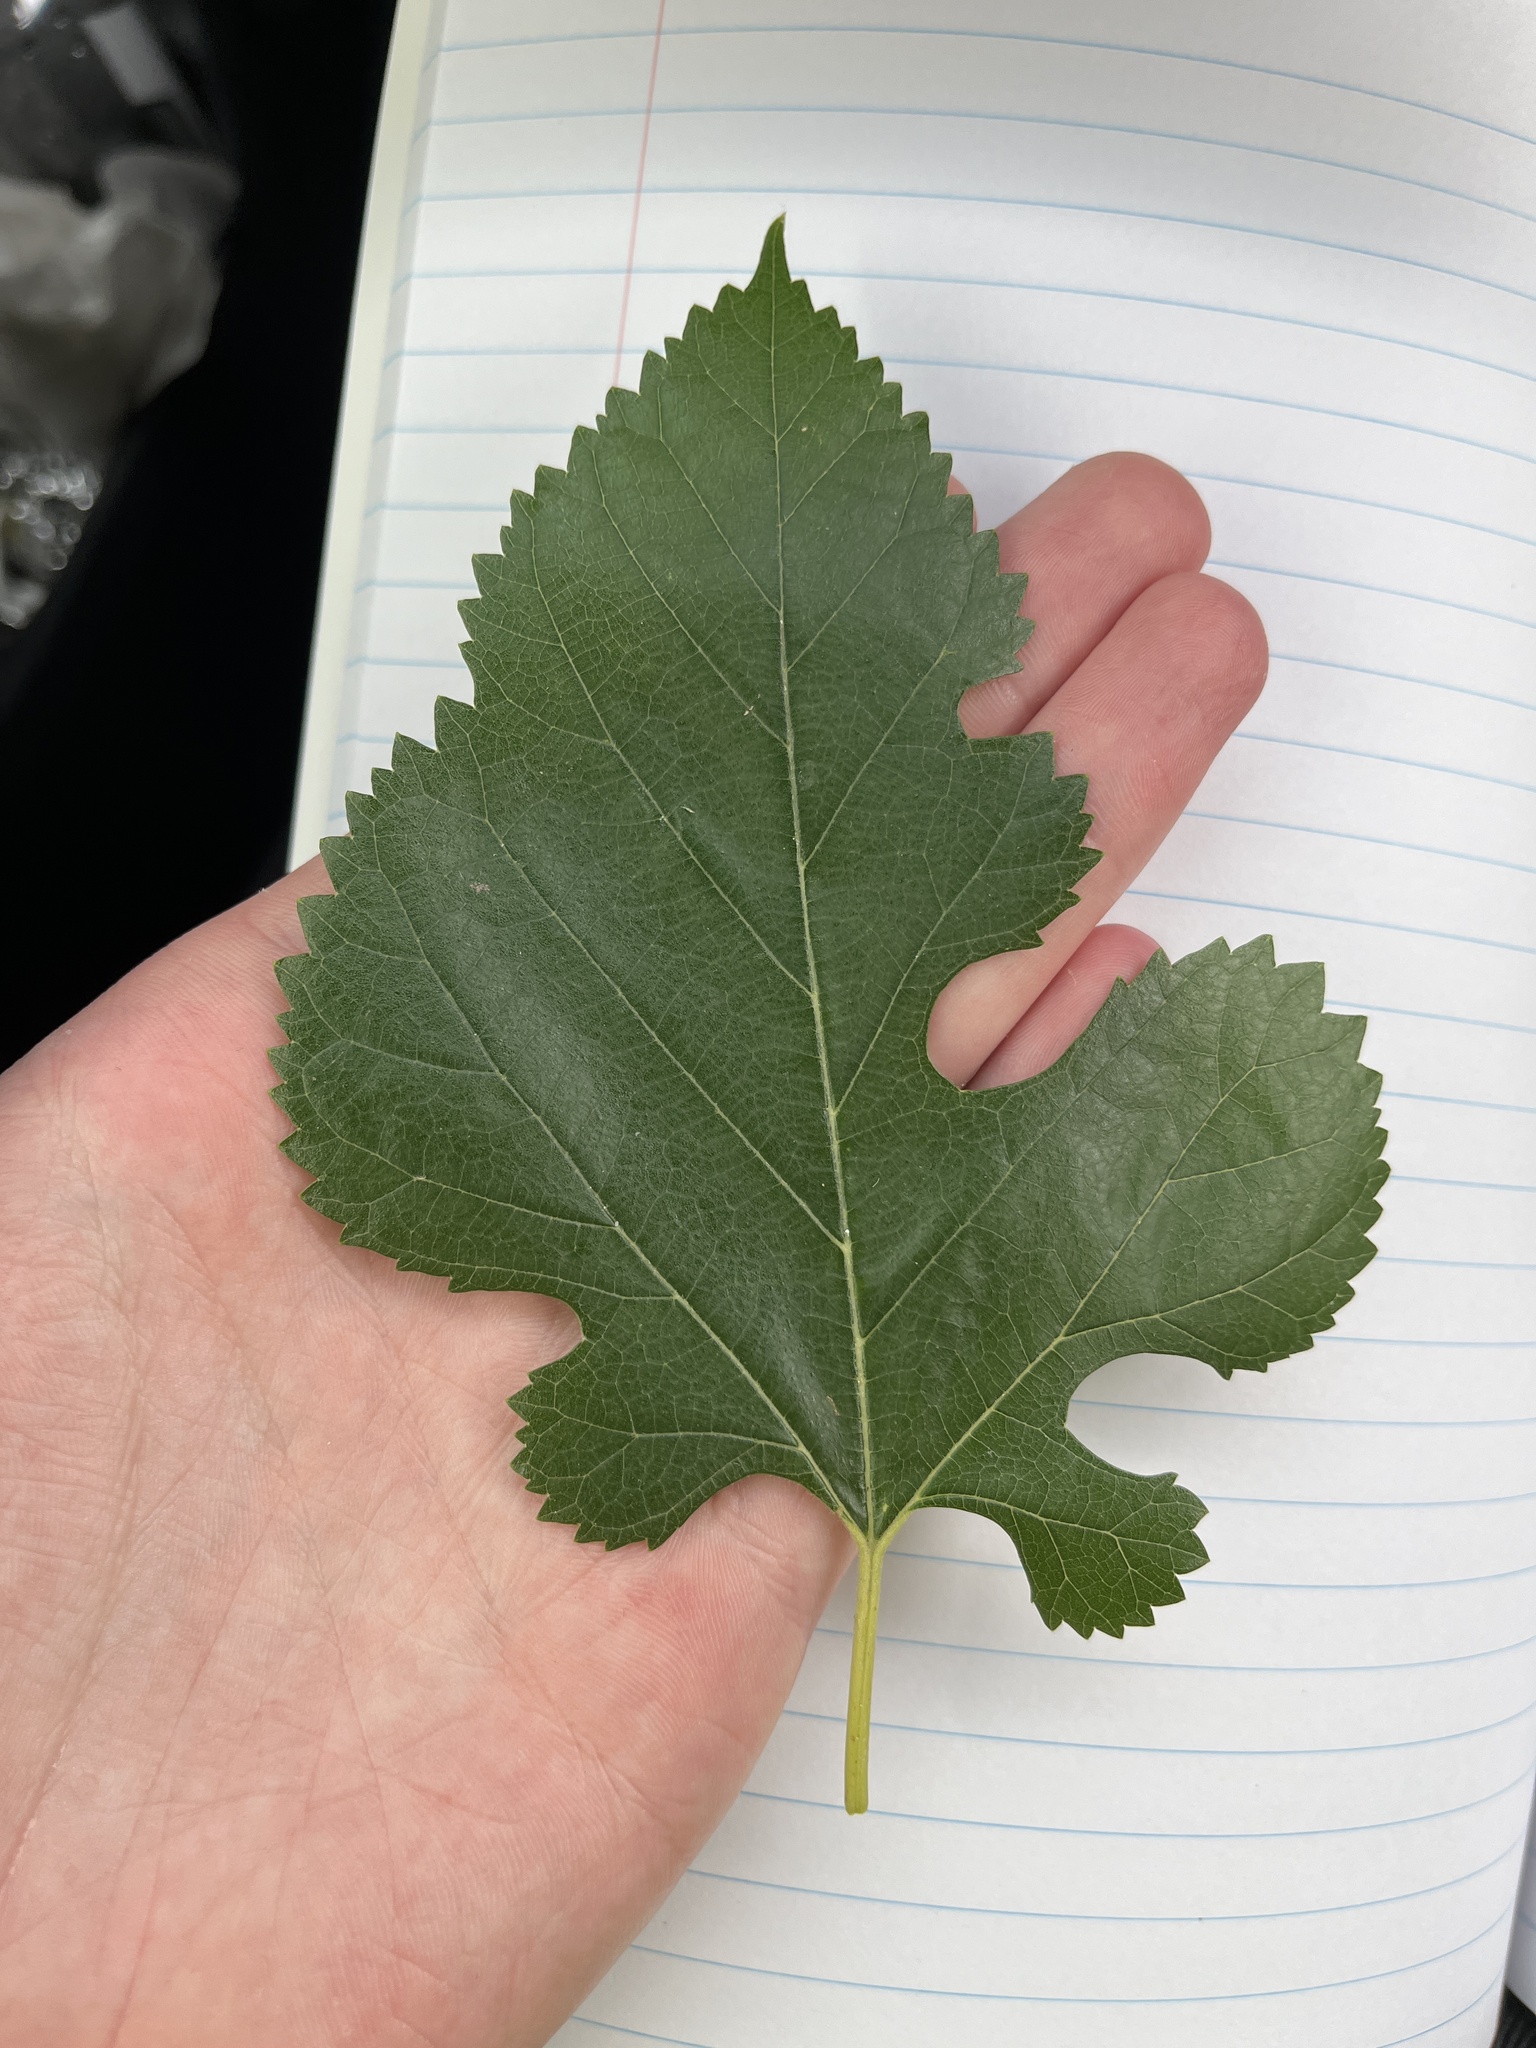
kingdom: Plantae
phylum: Tracheophyta
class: Magnoliopsida
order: Rosales
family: Moraceae
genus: Morus
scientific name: Morus alba
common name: White mulberry
